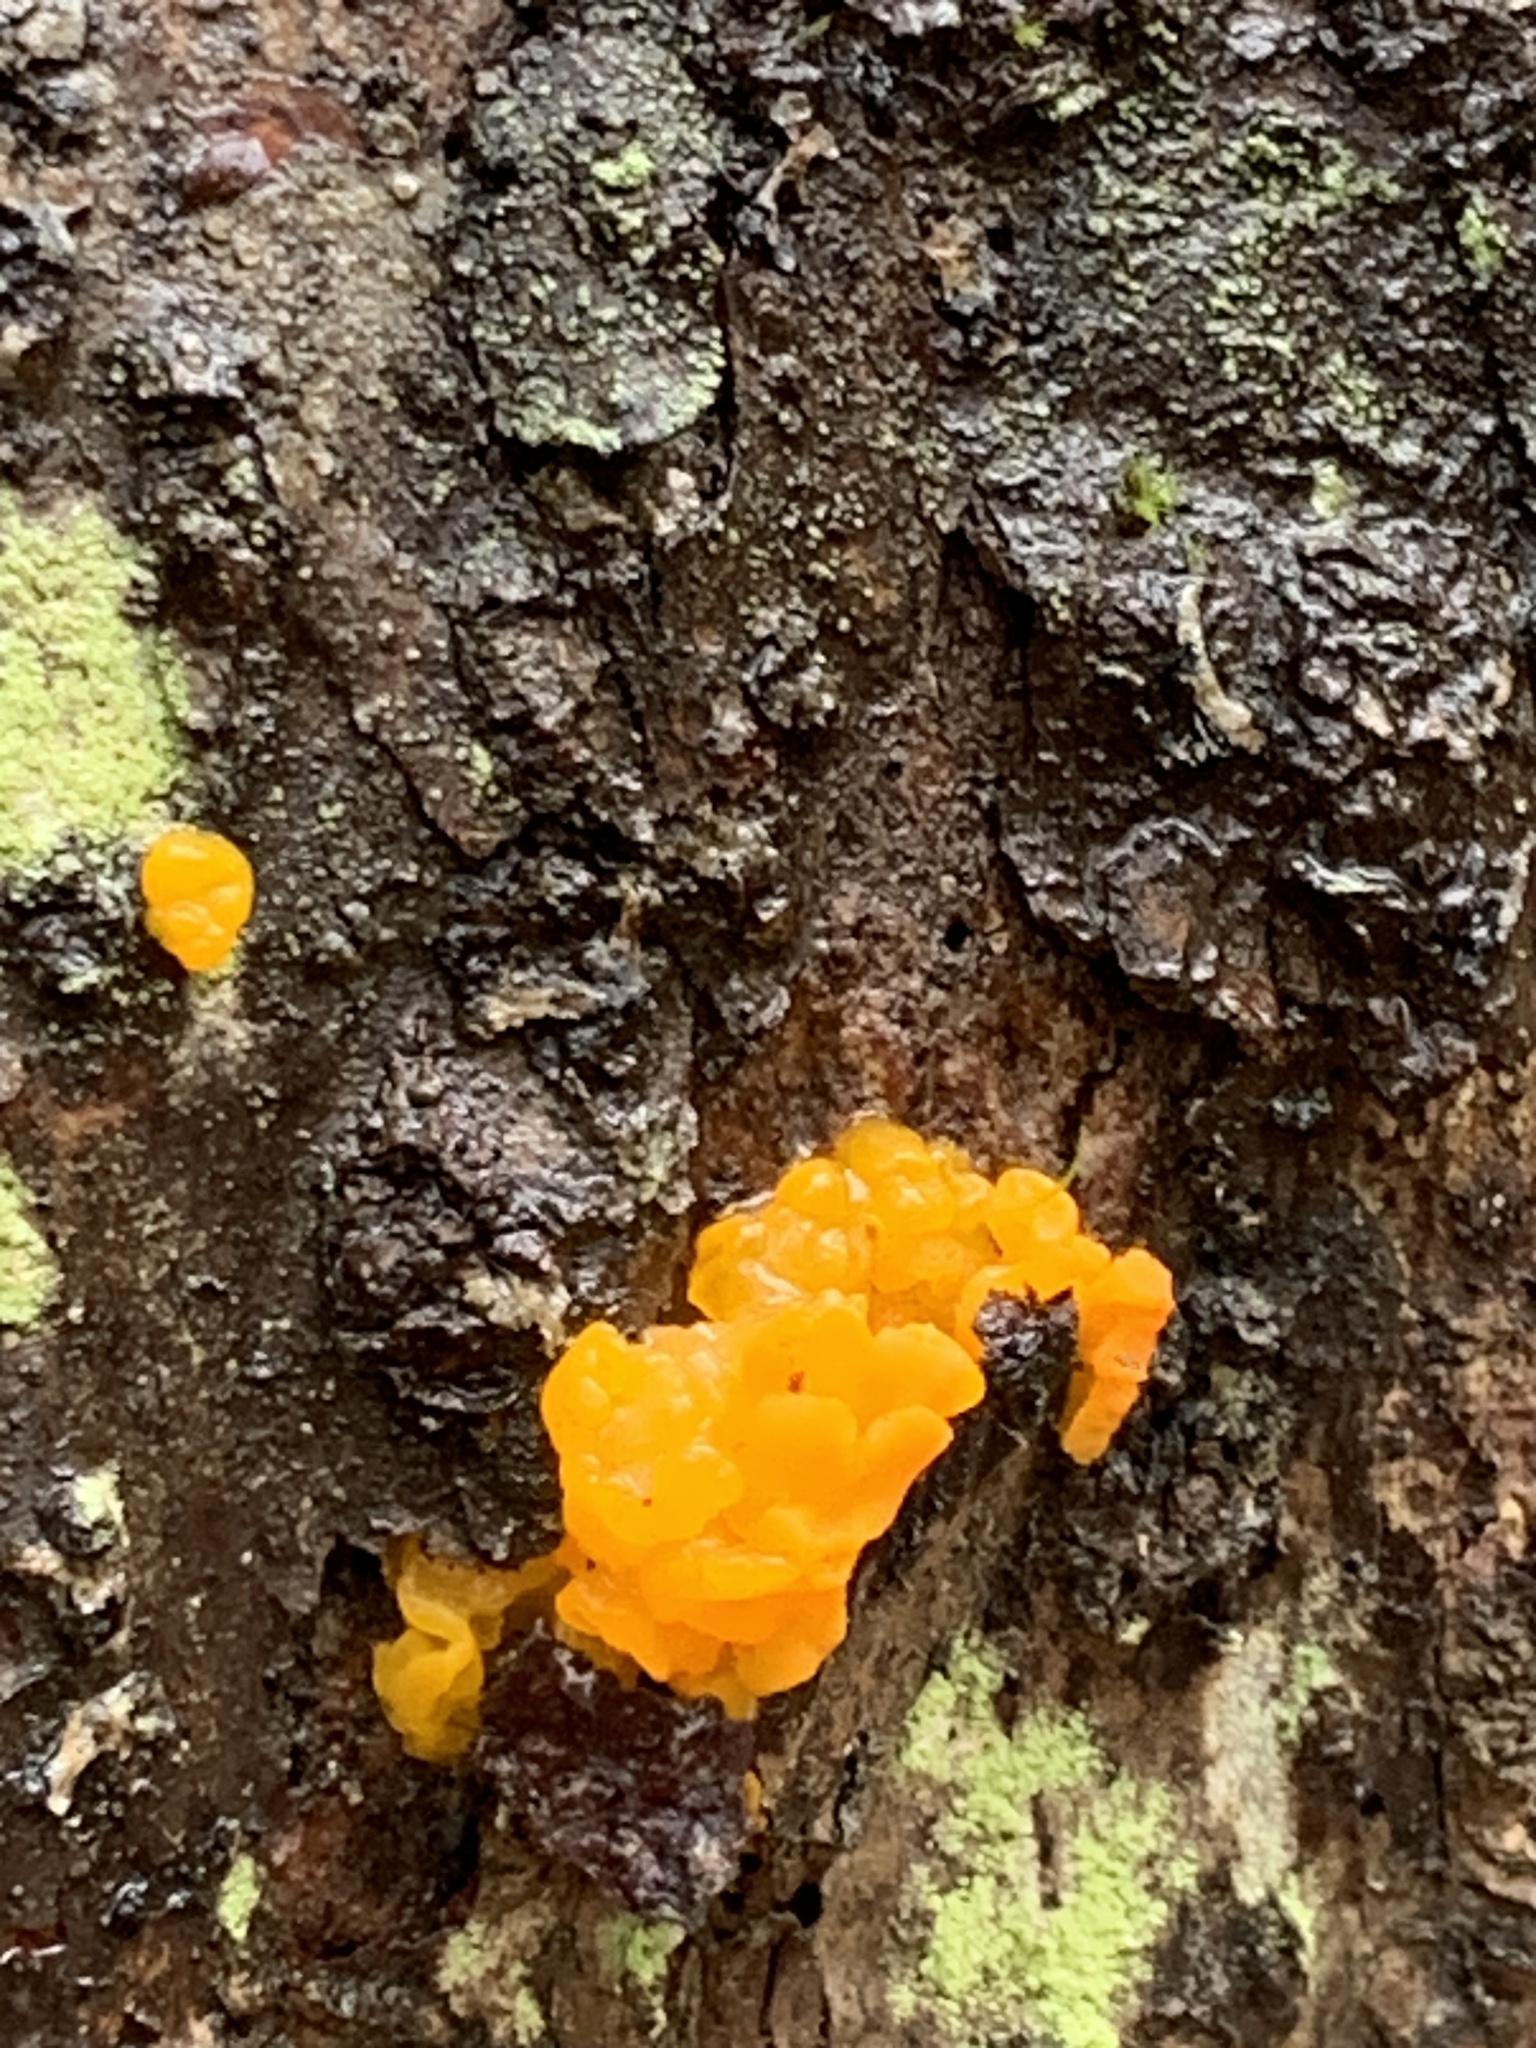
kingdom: Fungi
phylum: Basidiomycota
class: Dacrymycetes
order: Dacrymycetales
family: Dacrymycetaceae
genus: Dacrymyces
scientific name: Dacrymyces chrysospermus
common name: Orange jelly spot
